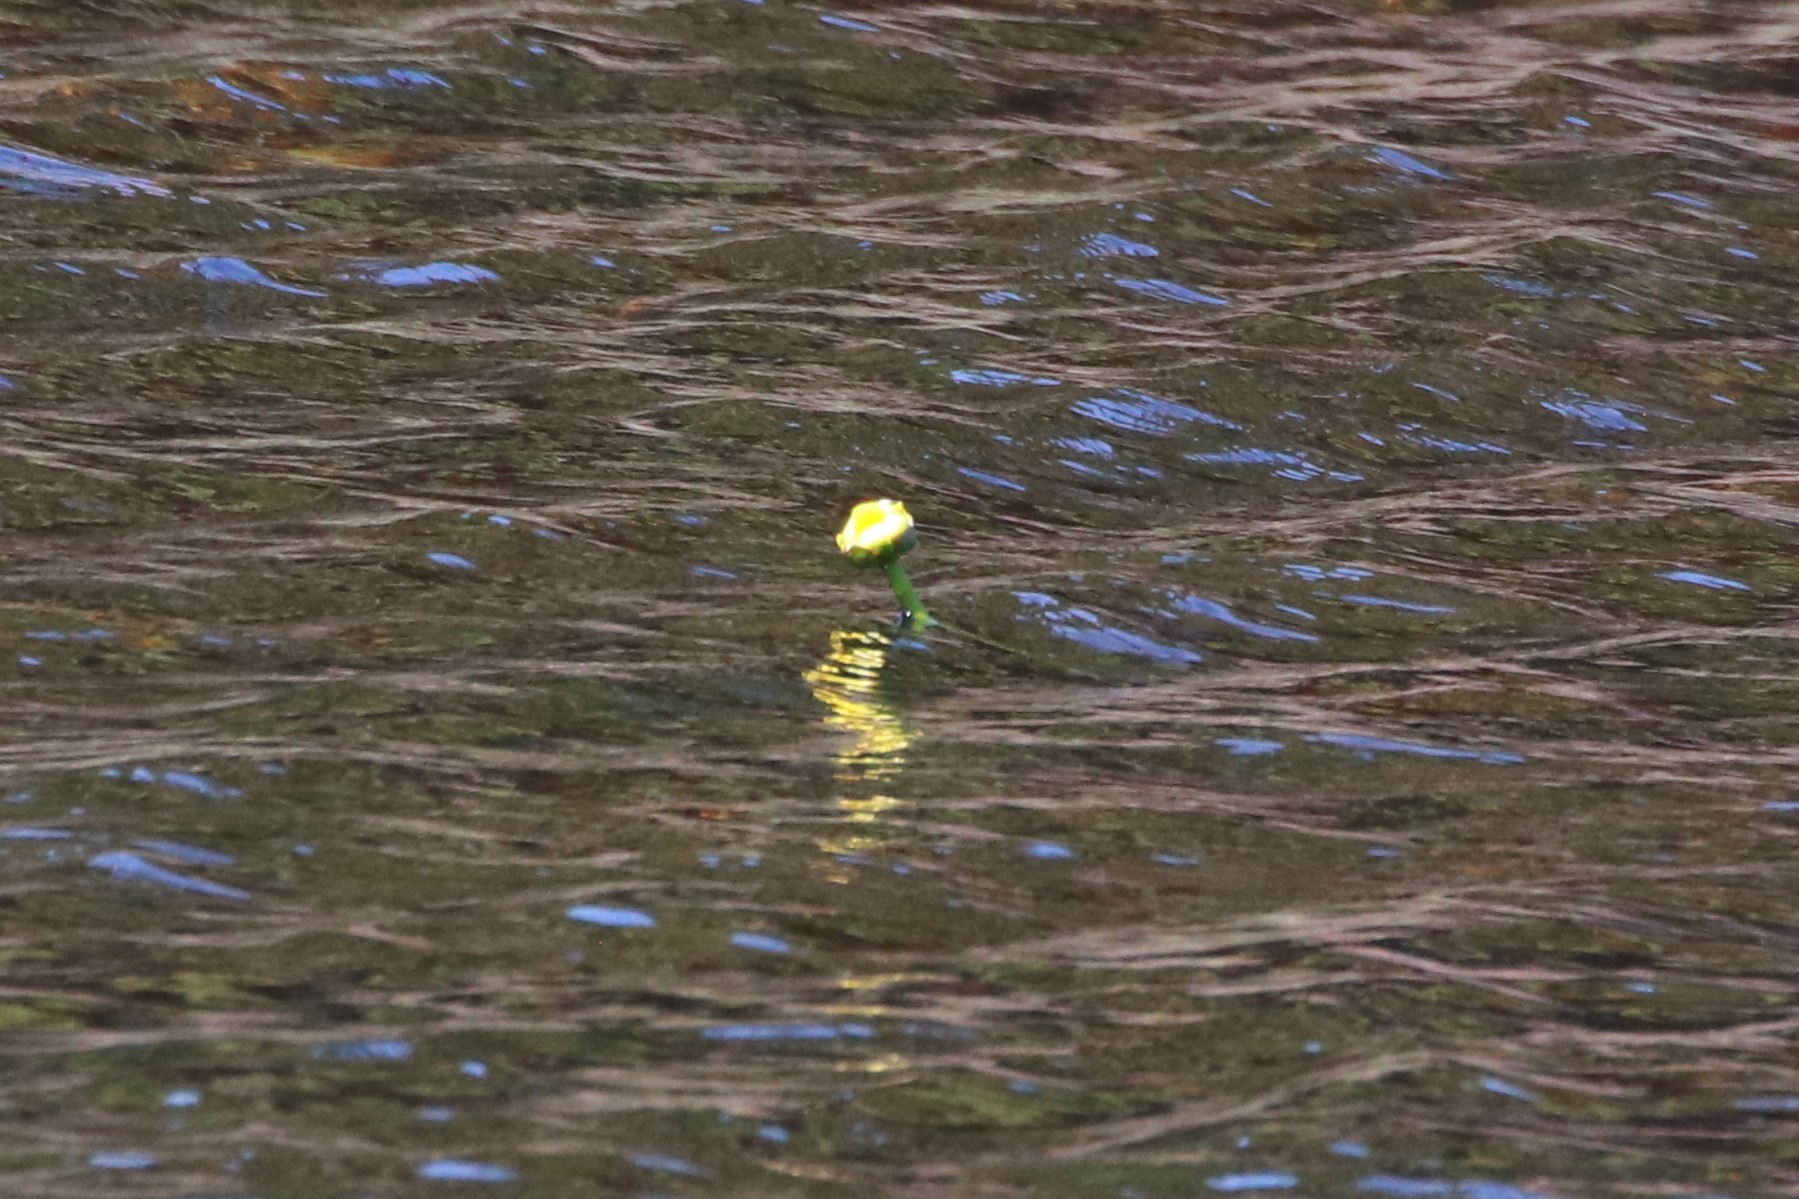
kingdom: Plantae
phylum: Tracheophyta
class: Magnoliopsida
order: Nymphaeales
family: Nymphaeaceae
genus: Nuphar
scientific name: Nuphar variegata
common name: Beaver-root
